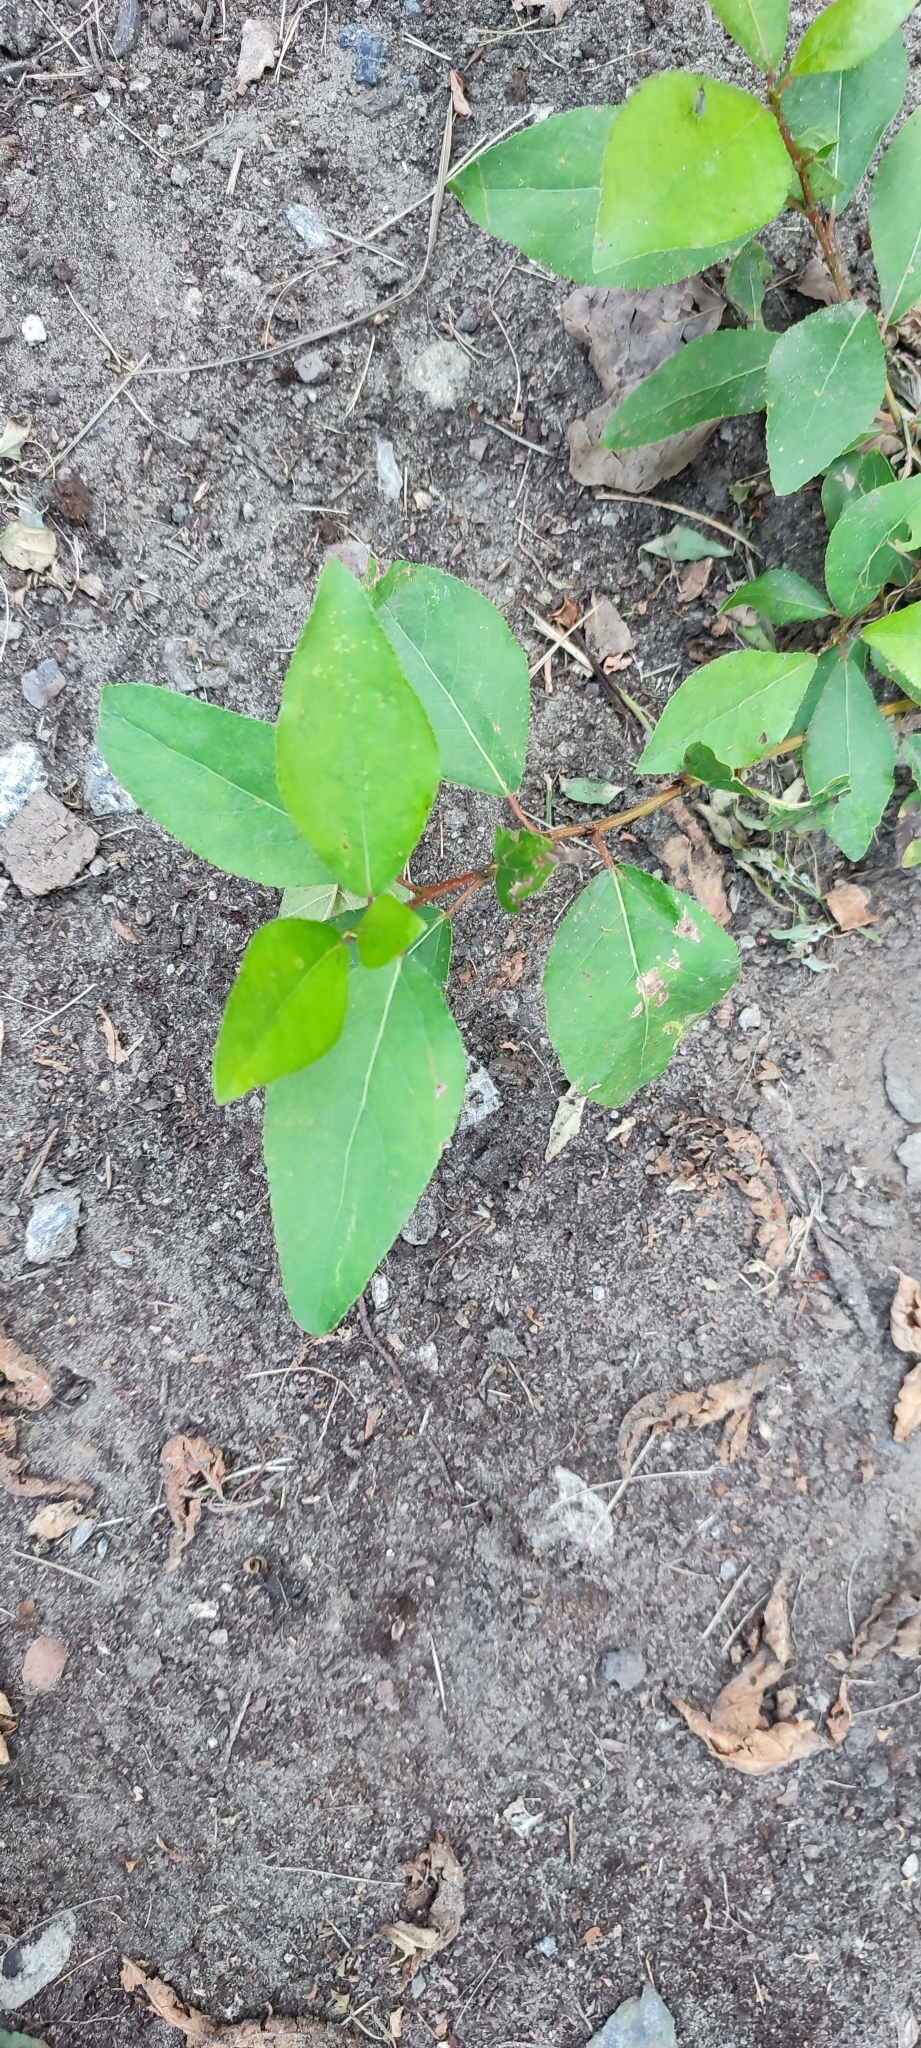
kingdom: Plantae
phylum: Tracheophyta
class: Magnoliopsida
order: Malpighiales
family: Salicaceae
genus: Populus
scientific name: Populus sibirica
